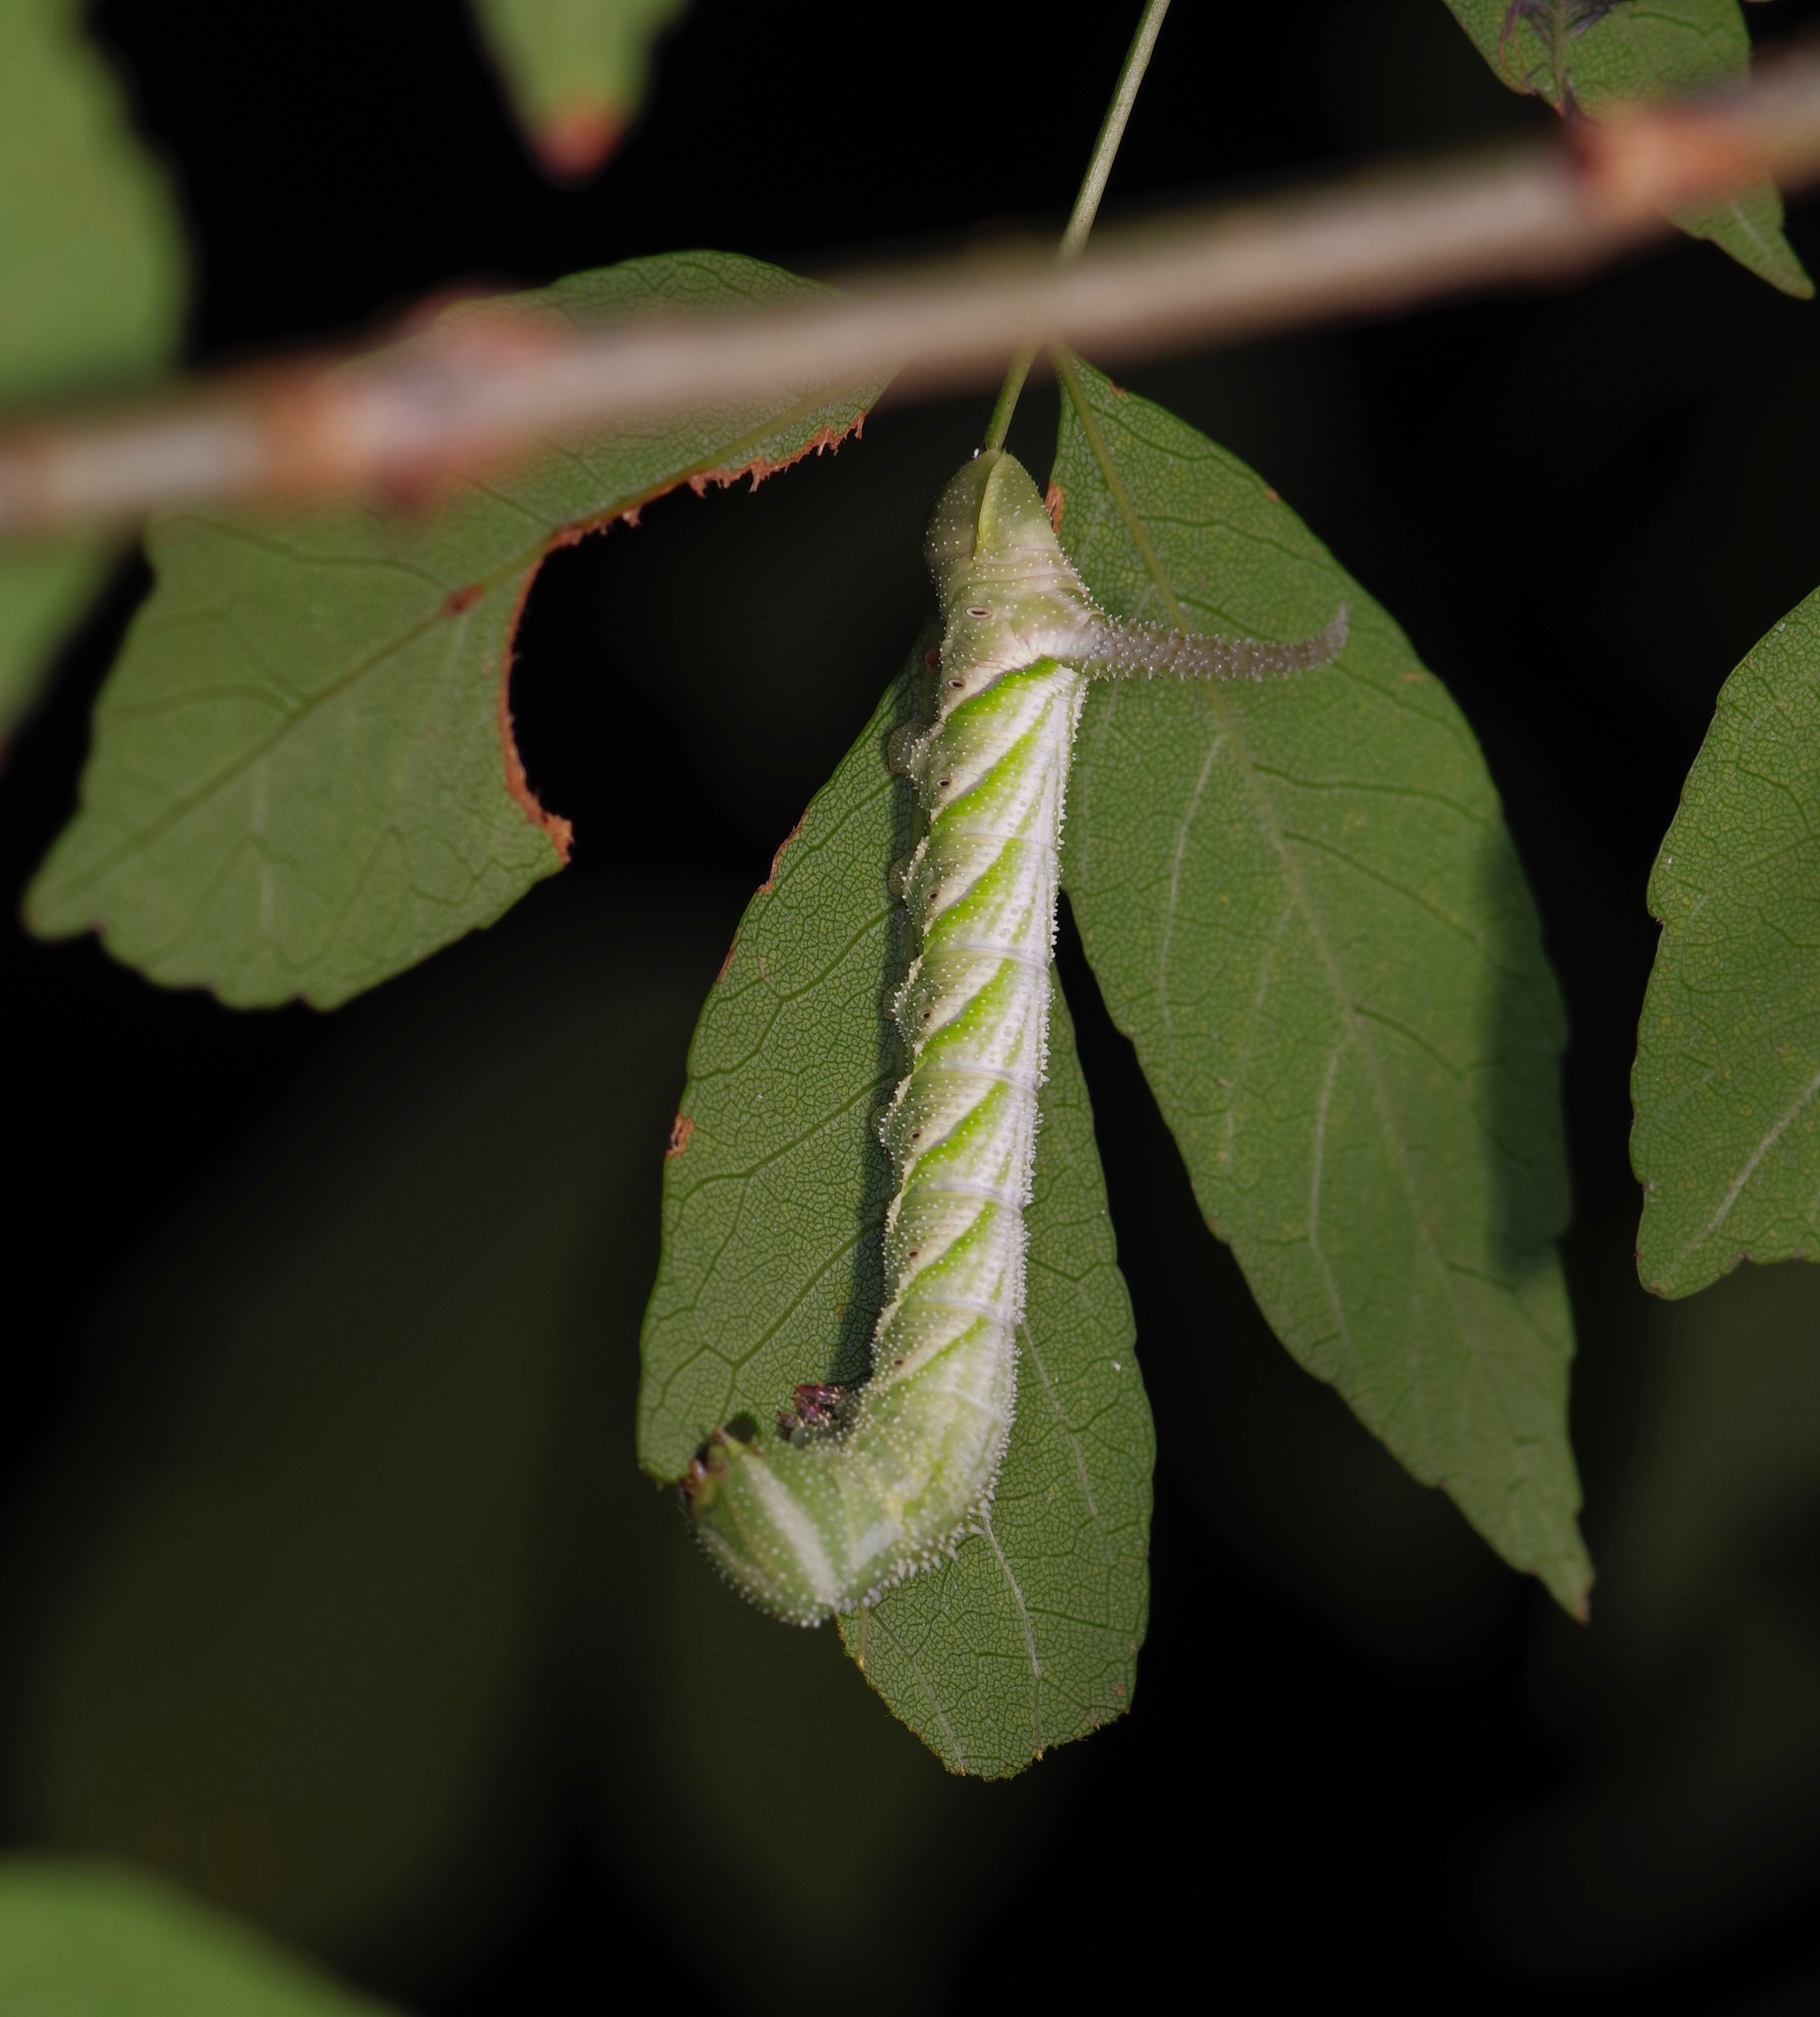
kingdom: Animalia
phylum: Arthropoda
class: Insecta
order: Lepidoptera
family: Sphingidae
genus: Manduca
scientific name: Manduca rustica
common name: Rustic sphinx
